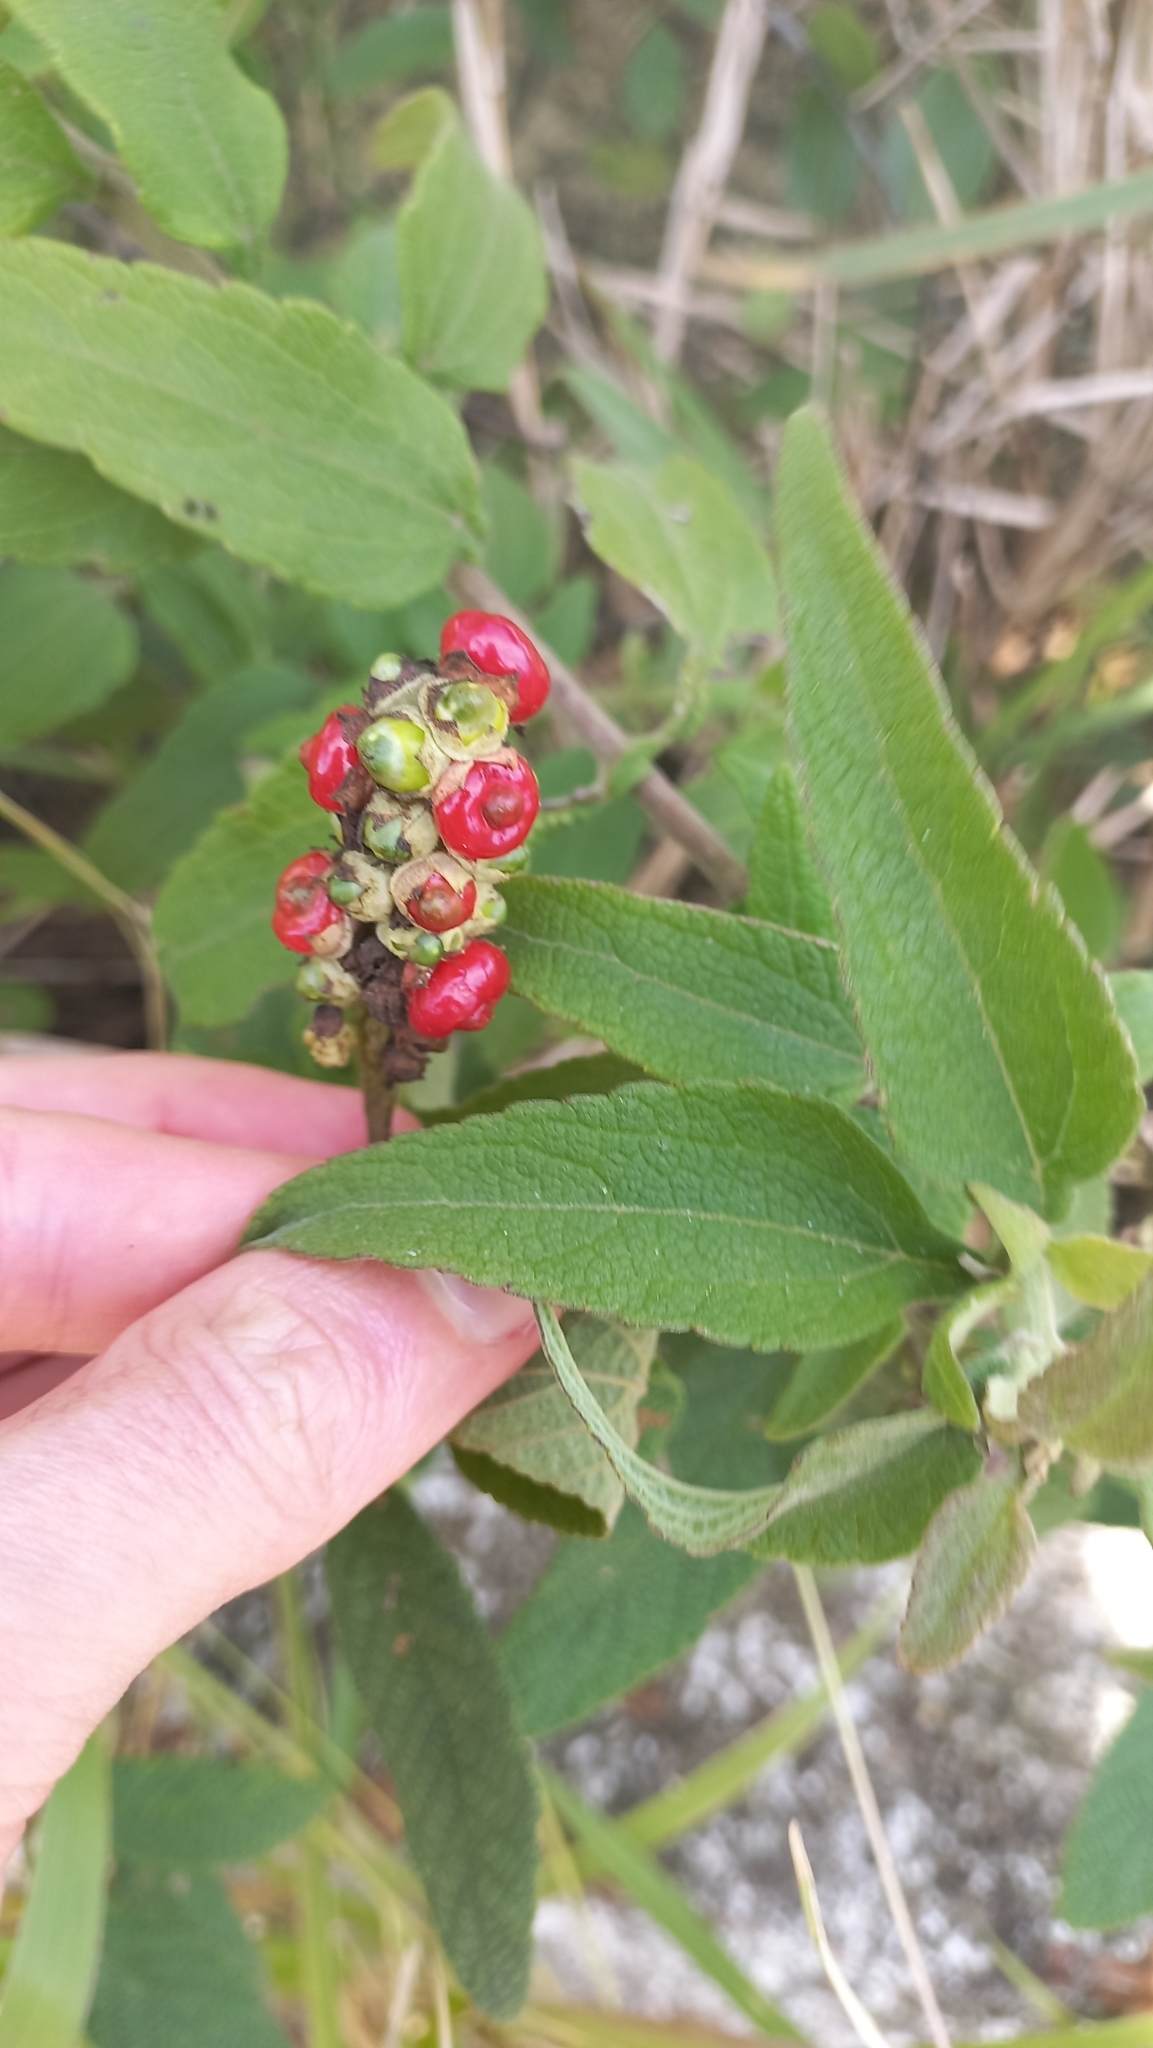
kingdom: Plantae
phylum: Tracheophyta
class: Magnoliopsida
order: Boraginales
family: Cordiaceae
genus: Varronia
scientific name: Varronia curassavica
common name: Black sage
